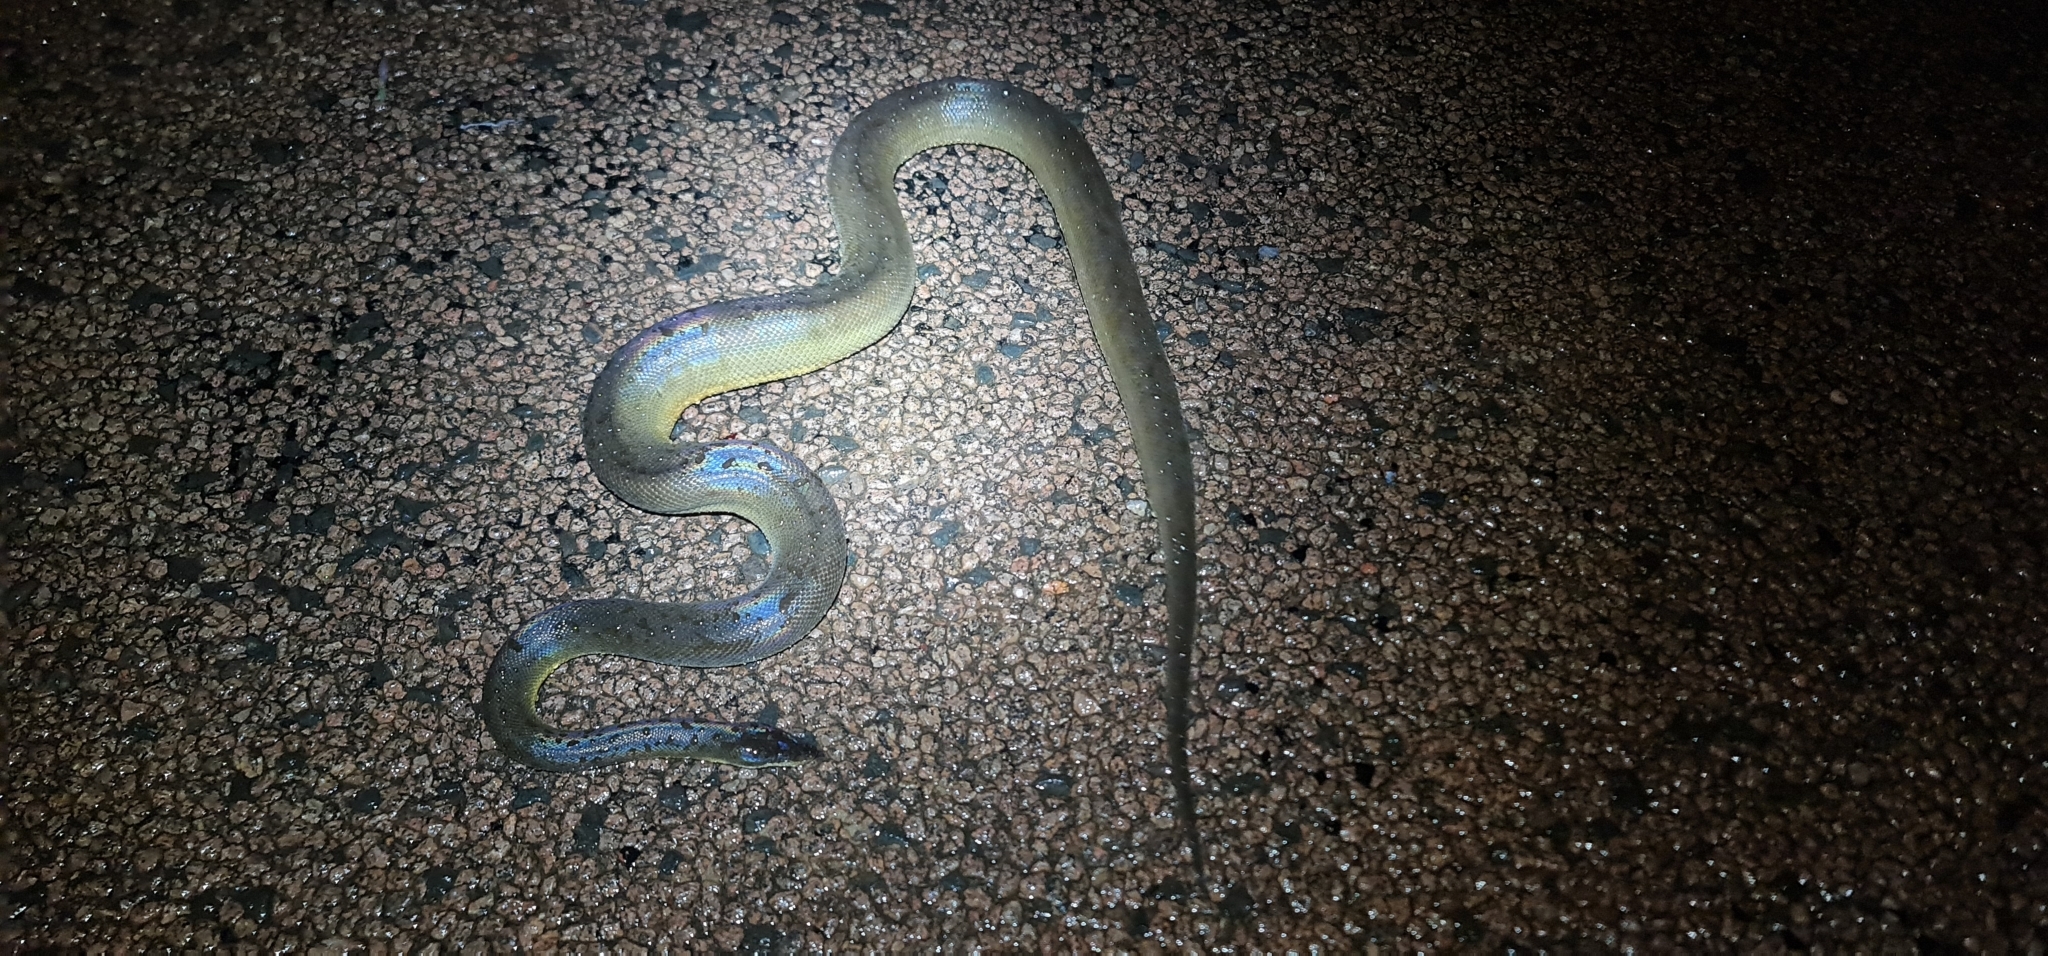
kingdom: Animalia
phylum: Chordata
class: Squamata
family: Pythonidae
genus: Liasis
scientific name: Liasis fuscus
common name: Brown water python
